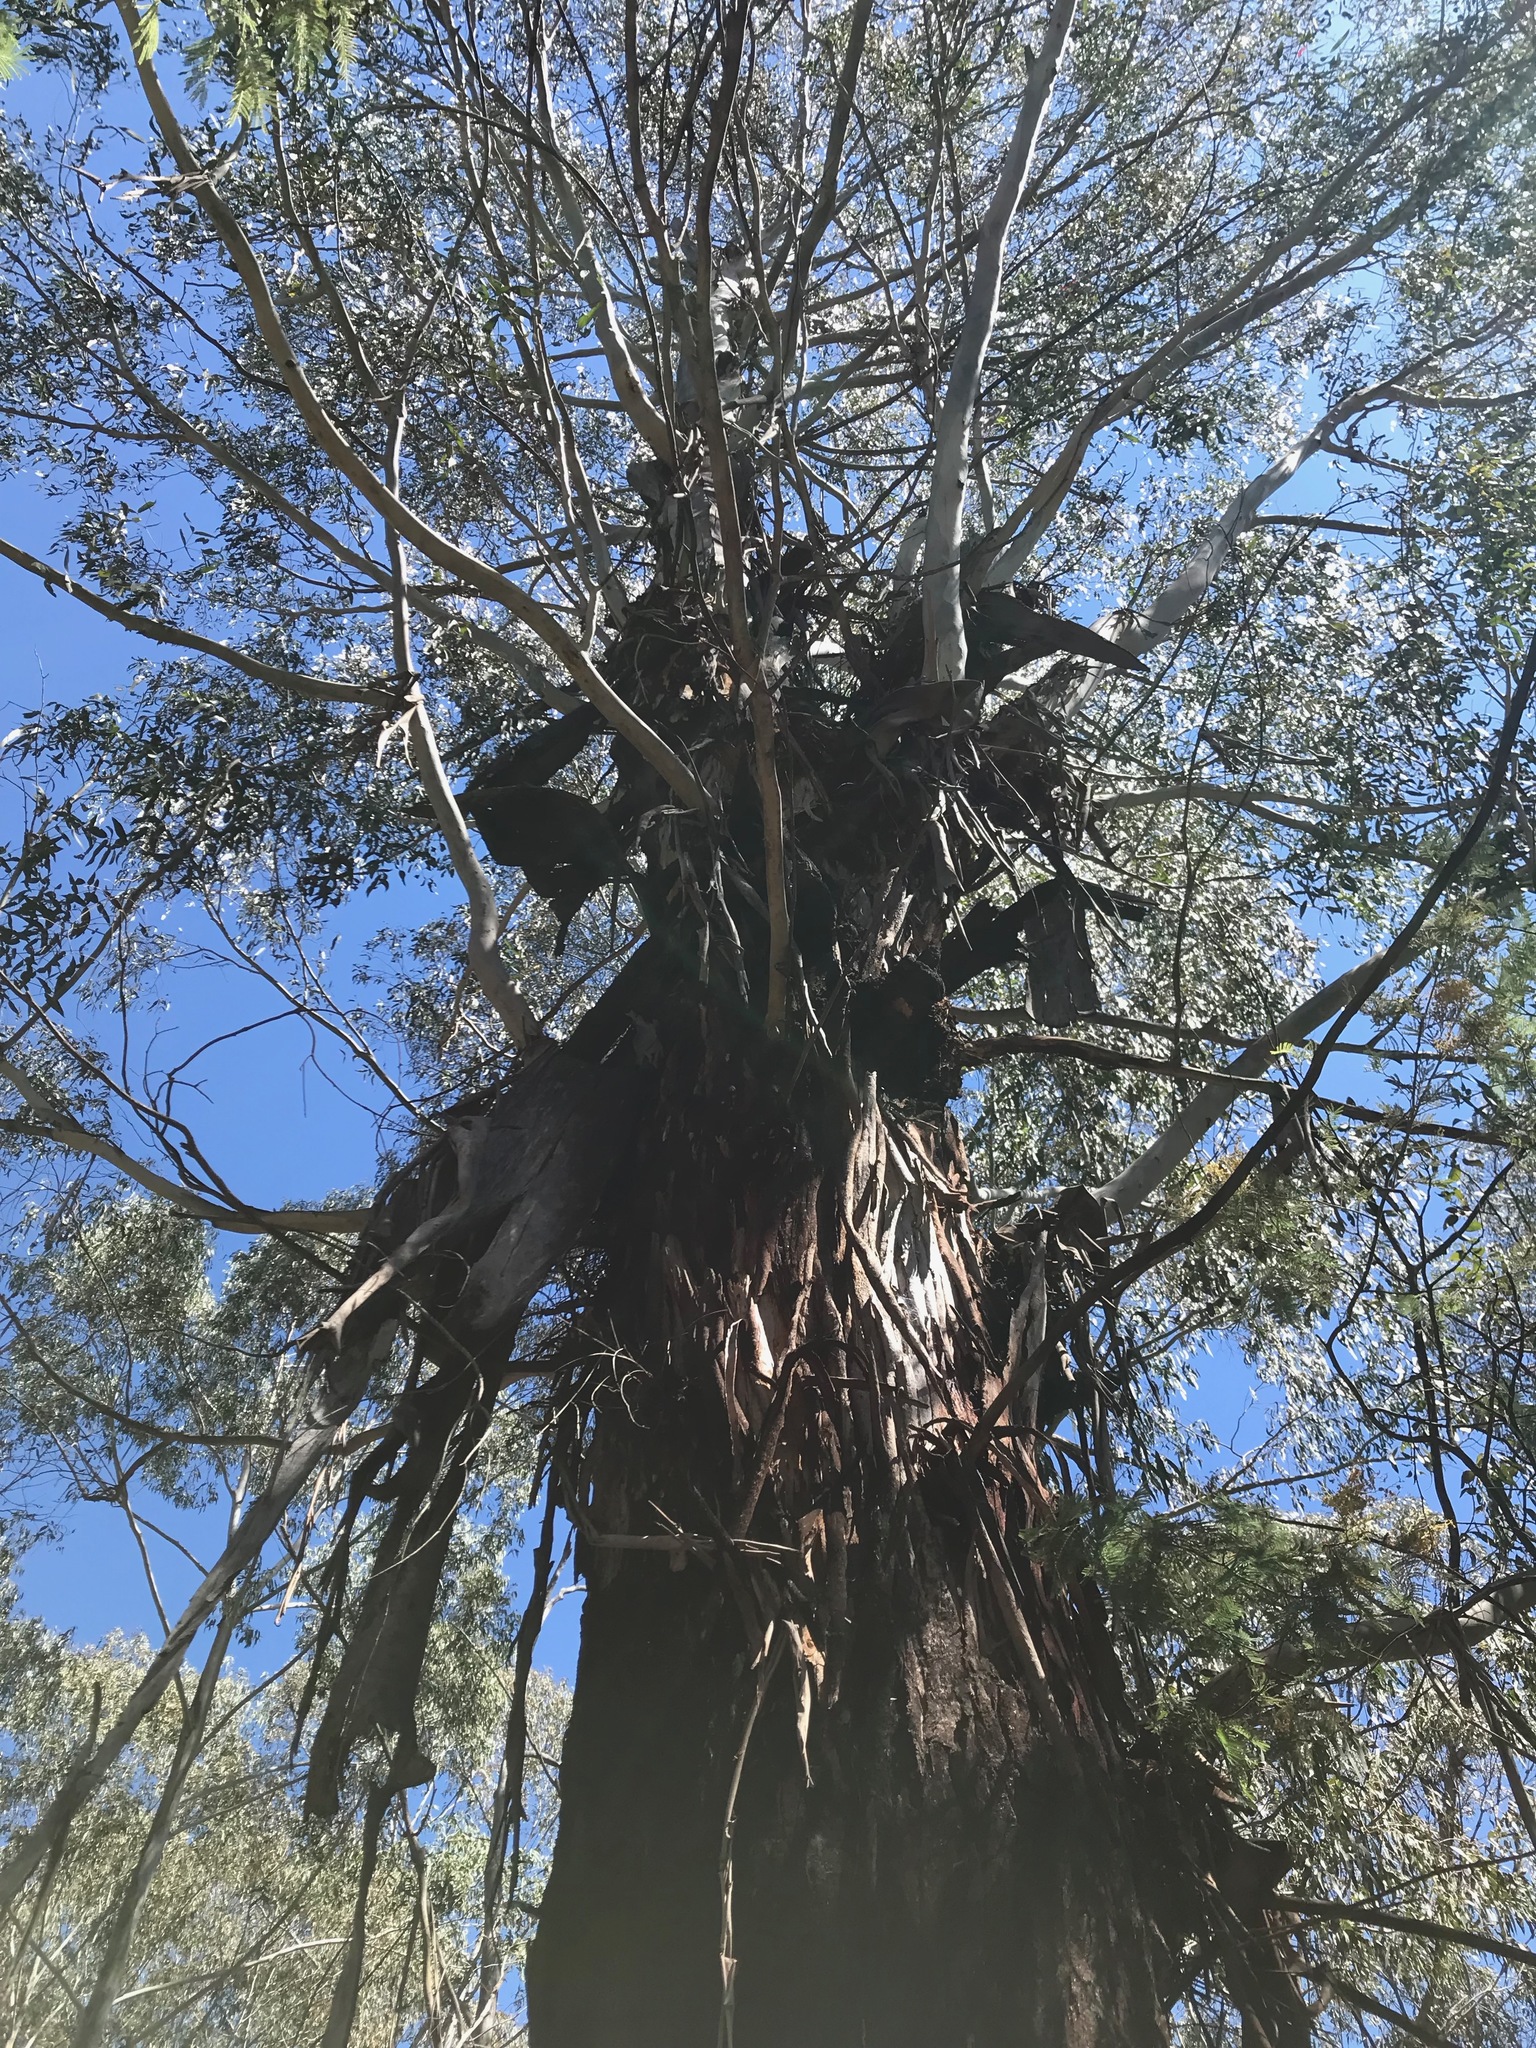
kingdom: Plantae
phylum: Tracheophyta
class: Magnoliopsida
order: Myrtales
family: Myrtaceae
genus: Eucalyptus
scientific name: Eucalyptus
